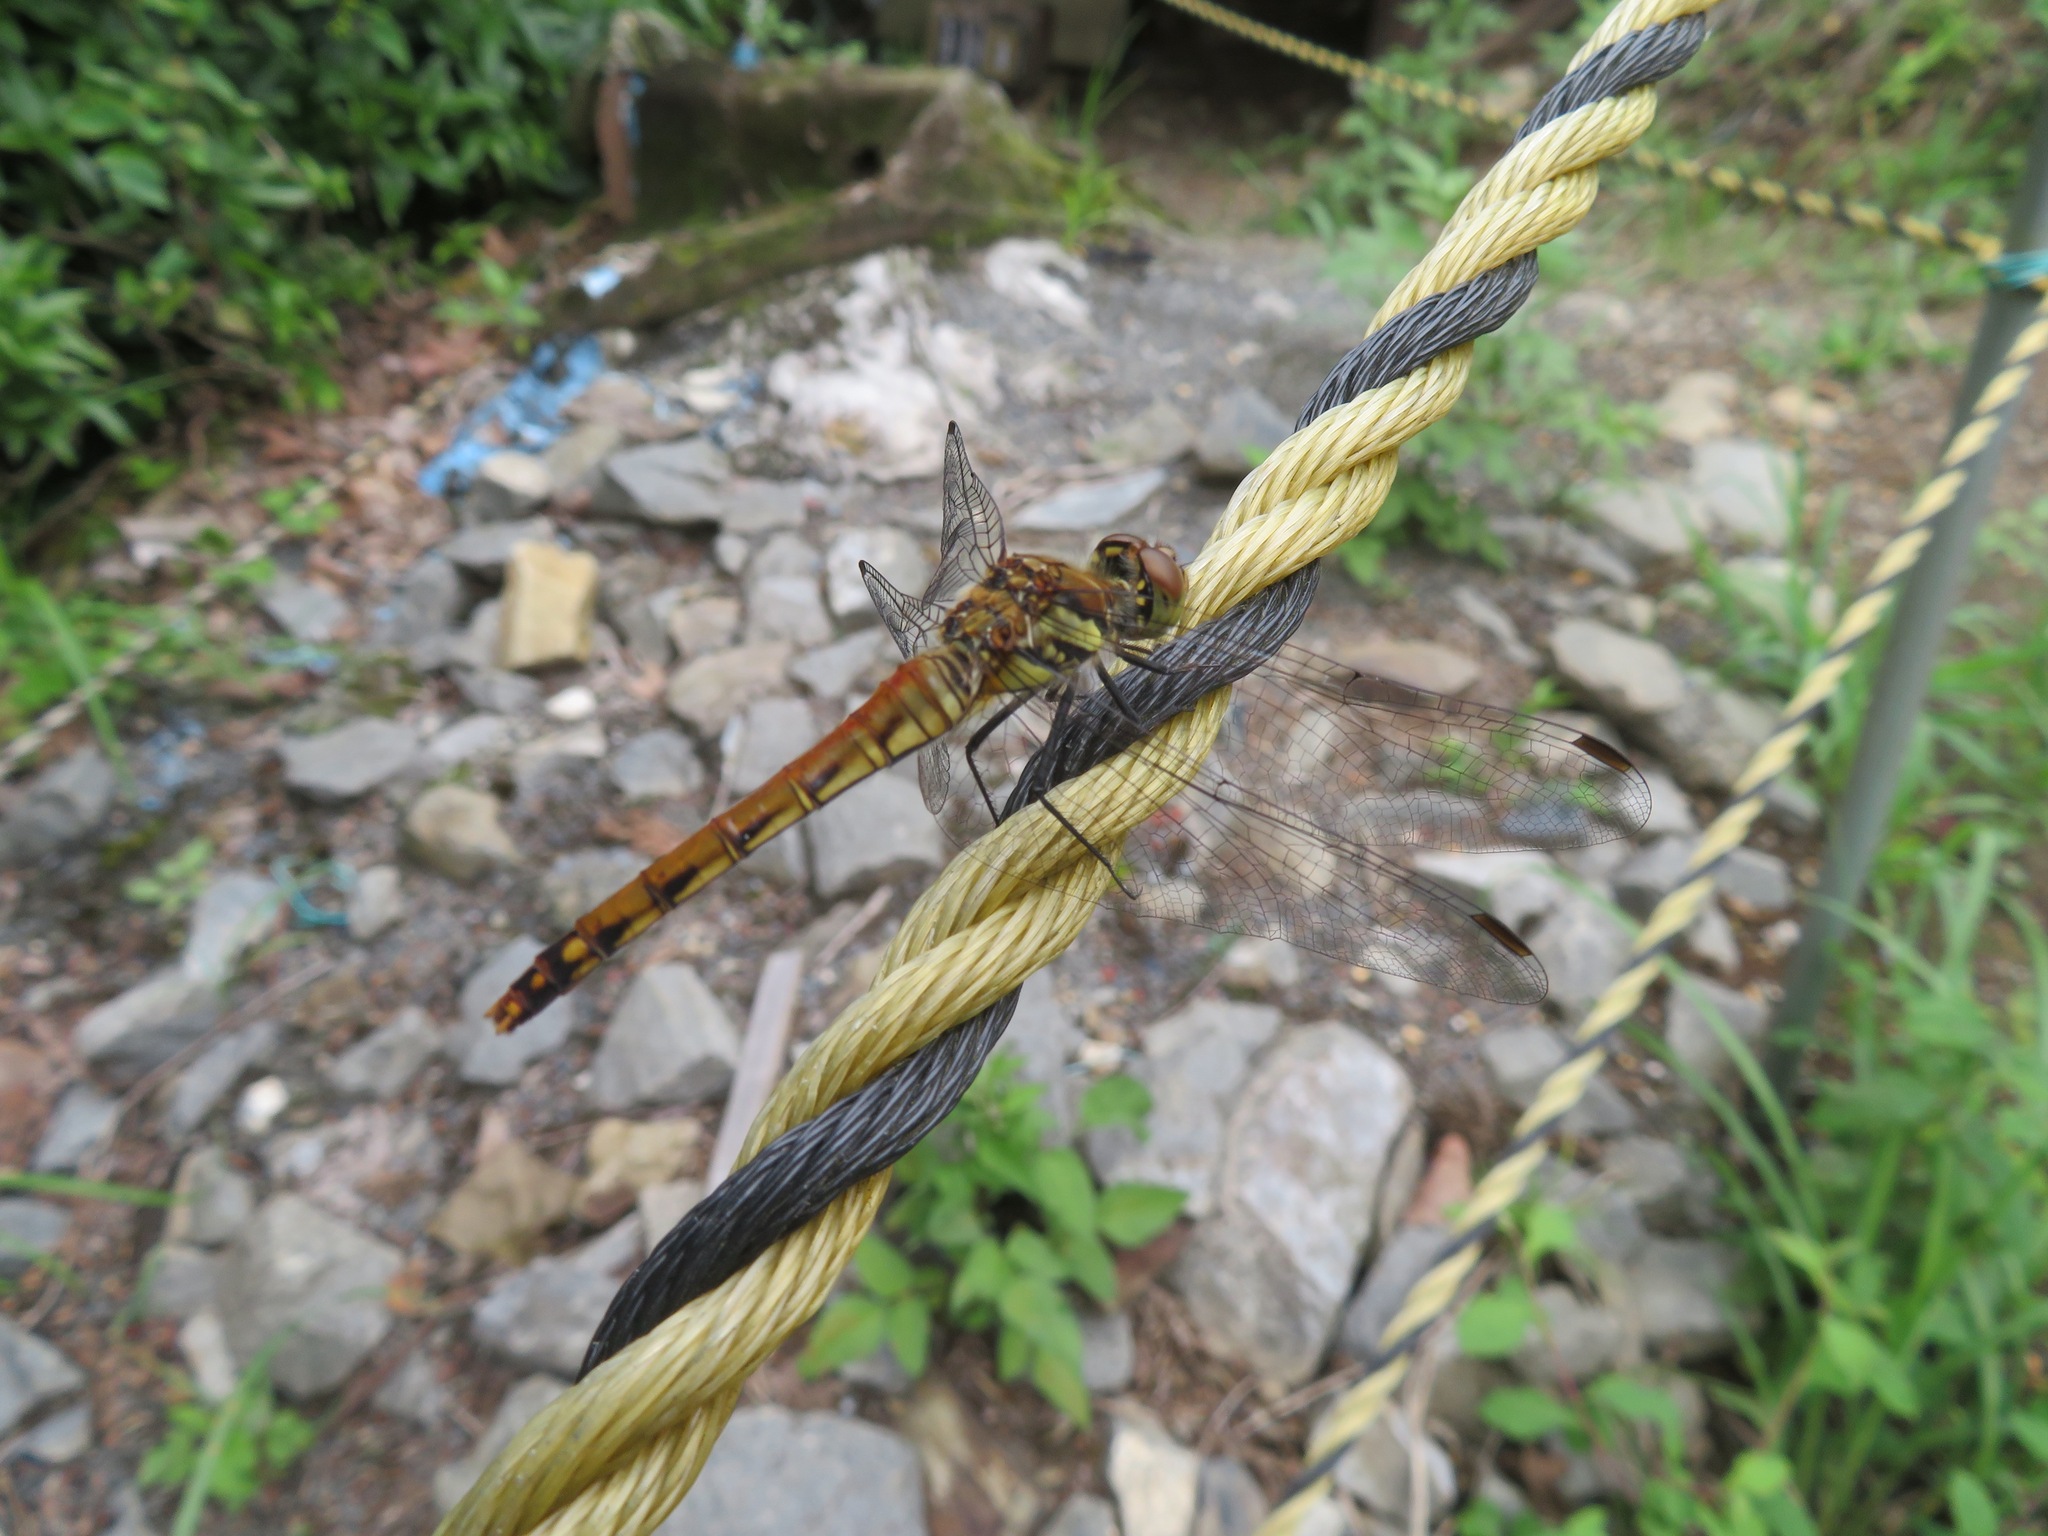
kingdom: Animalia
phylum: Arthropoda
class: Insecta
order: Odonata
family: Libellulidae
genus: Sympetrum
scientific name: Sympetrum frequens
